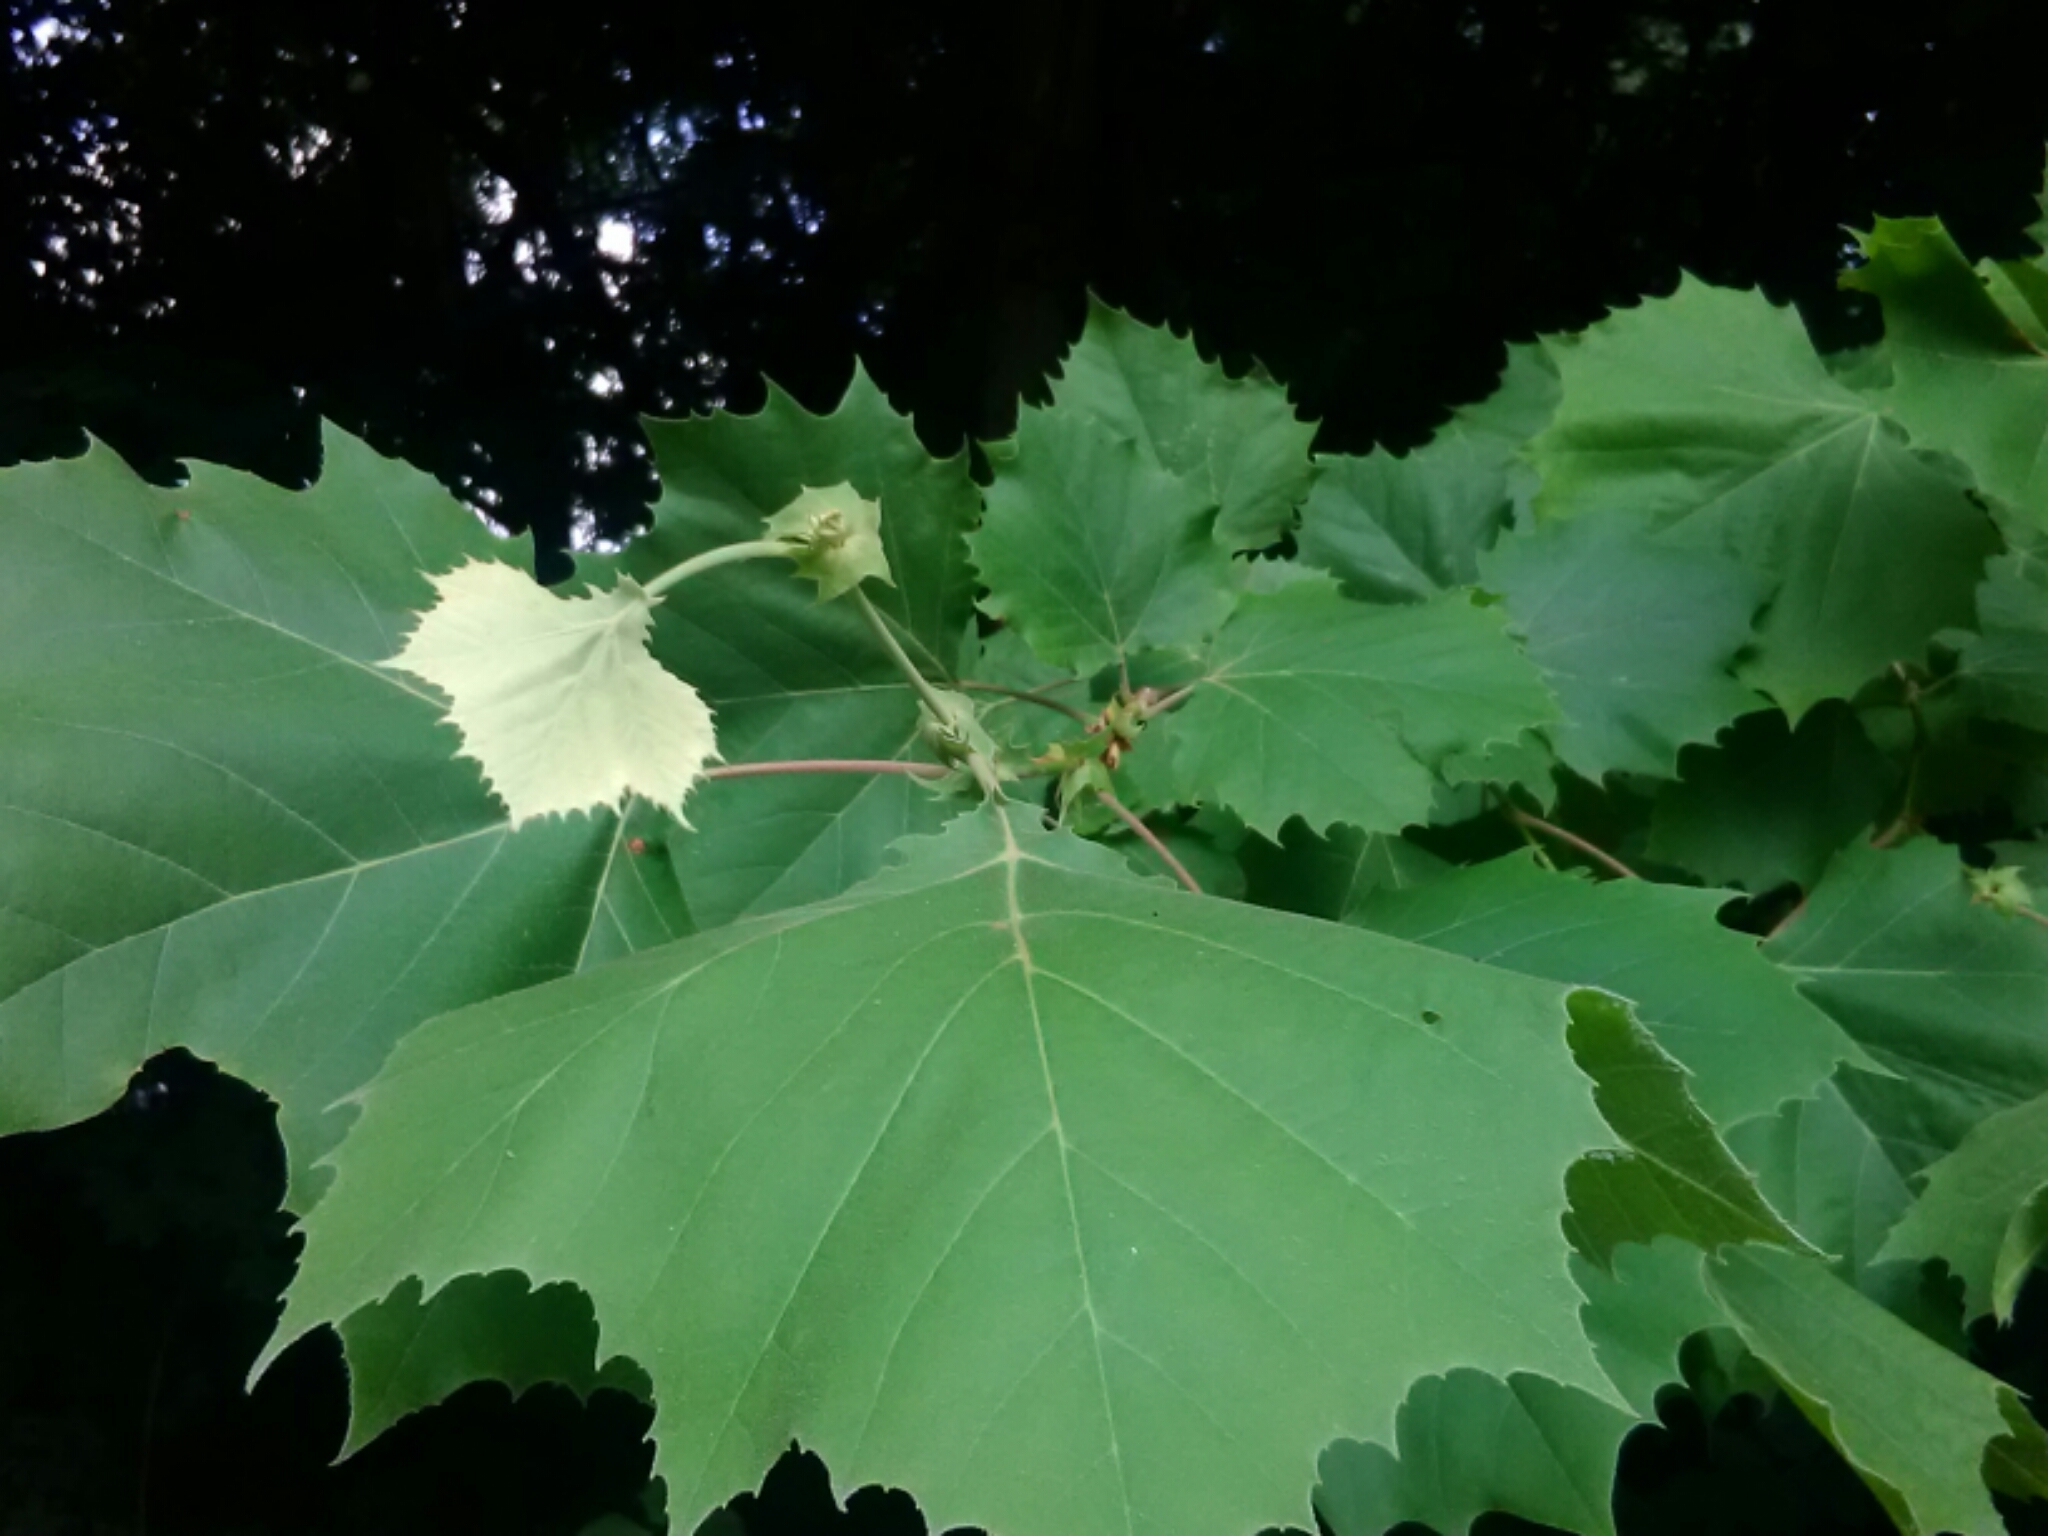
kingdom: Plantae
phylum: Tracheophyta
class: Magnoliopsida
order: Proteales
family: Platanaceae
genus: Platanus
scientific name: Platanus occidentalis
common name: American sycamore
